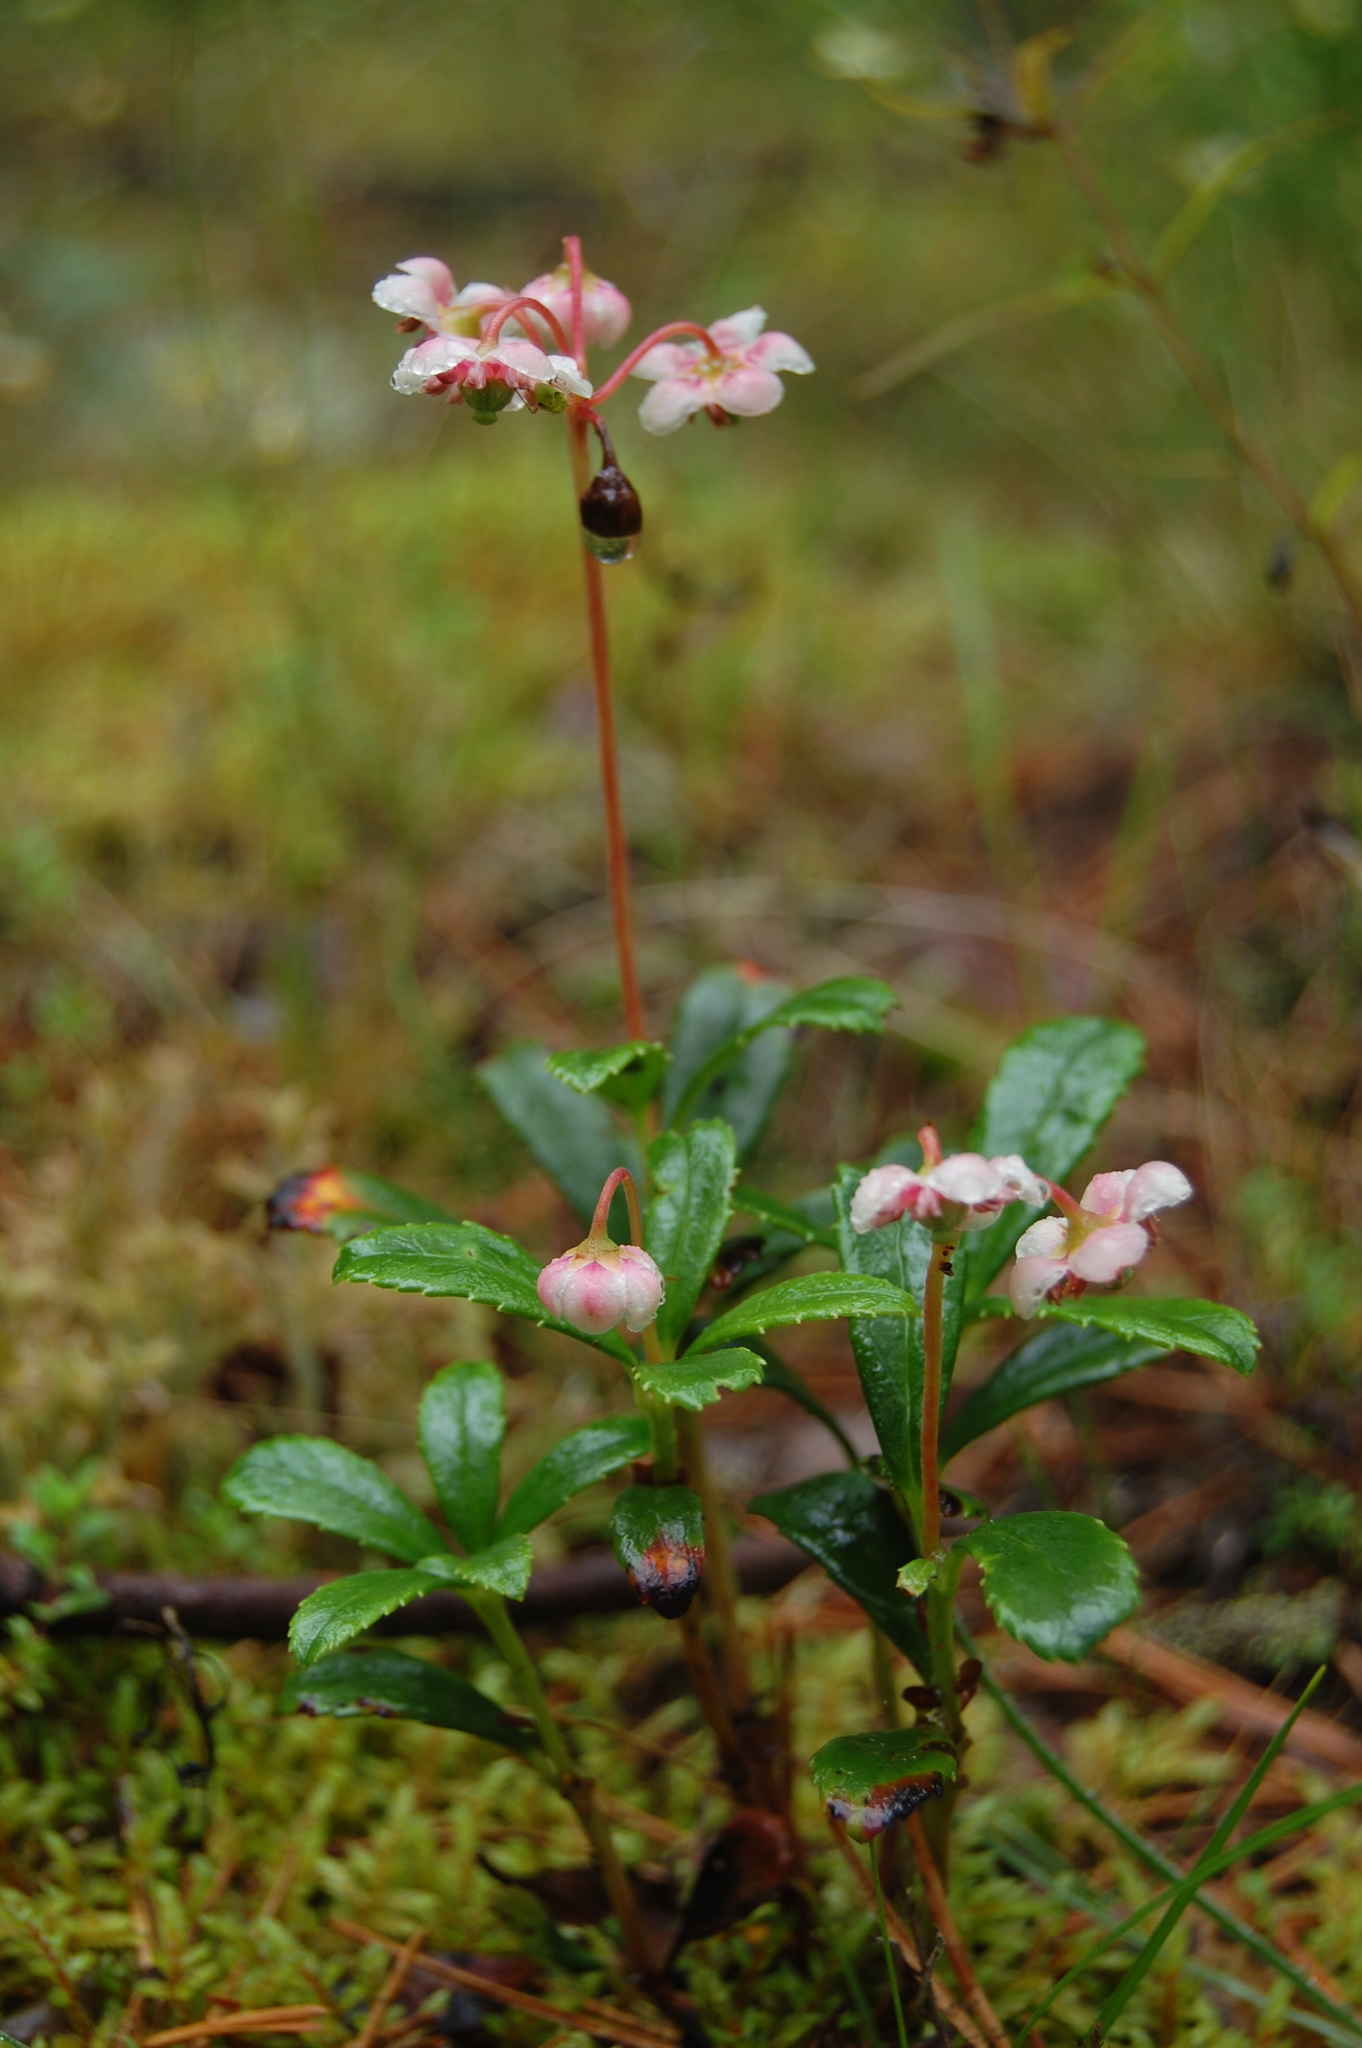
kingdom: Plantae
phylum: Tracheophyta
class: Magnoliopsida
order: Ericales
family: Ericaceae
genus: Chimaphila
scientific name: Chimaphila umbellata
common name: Pipsissewa
